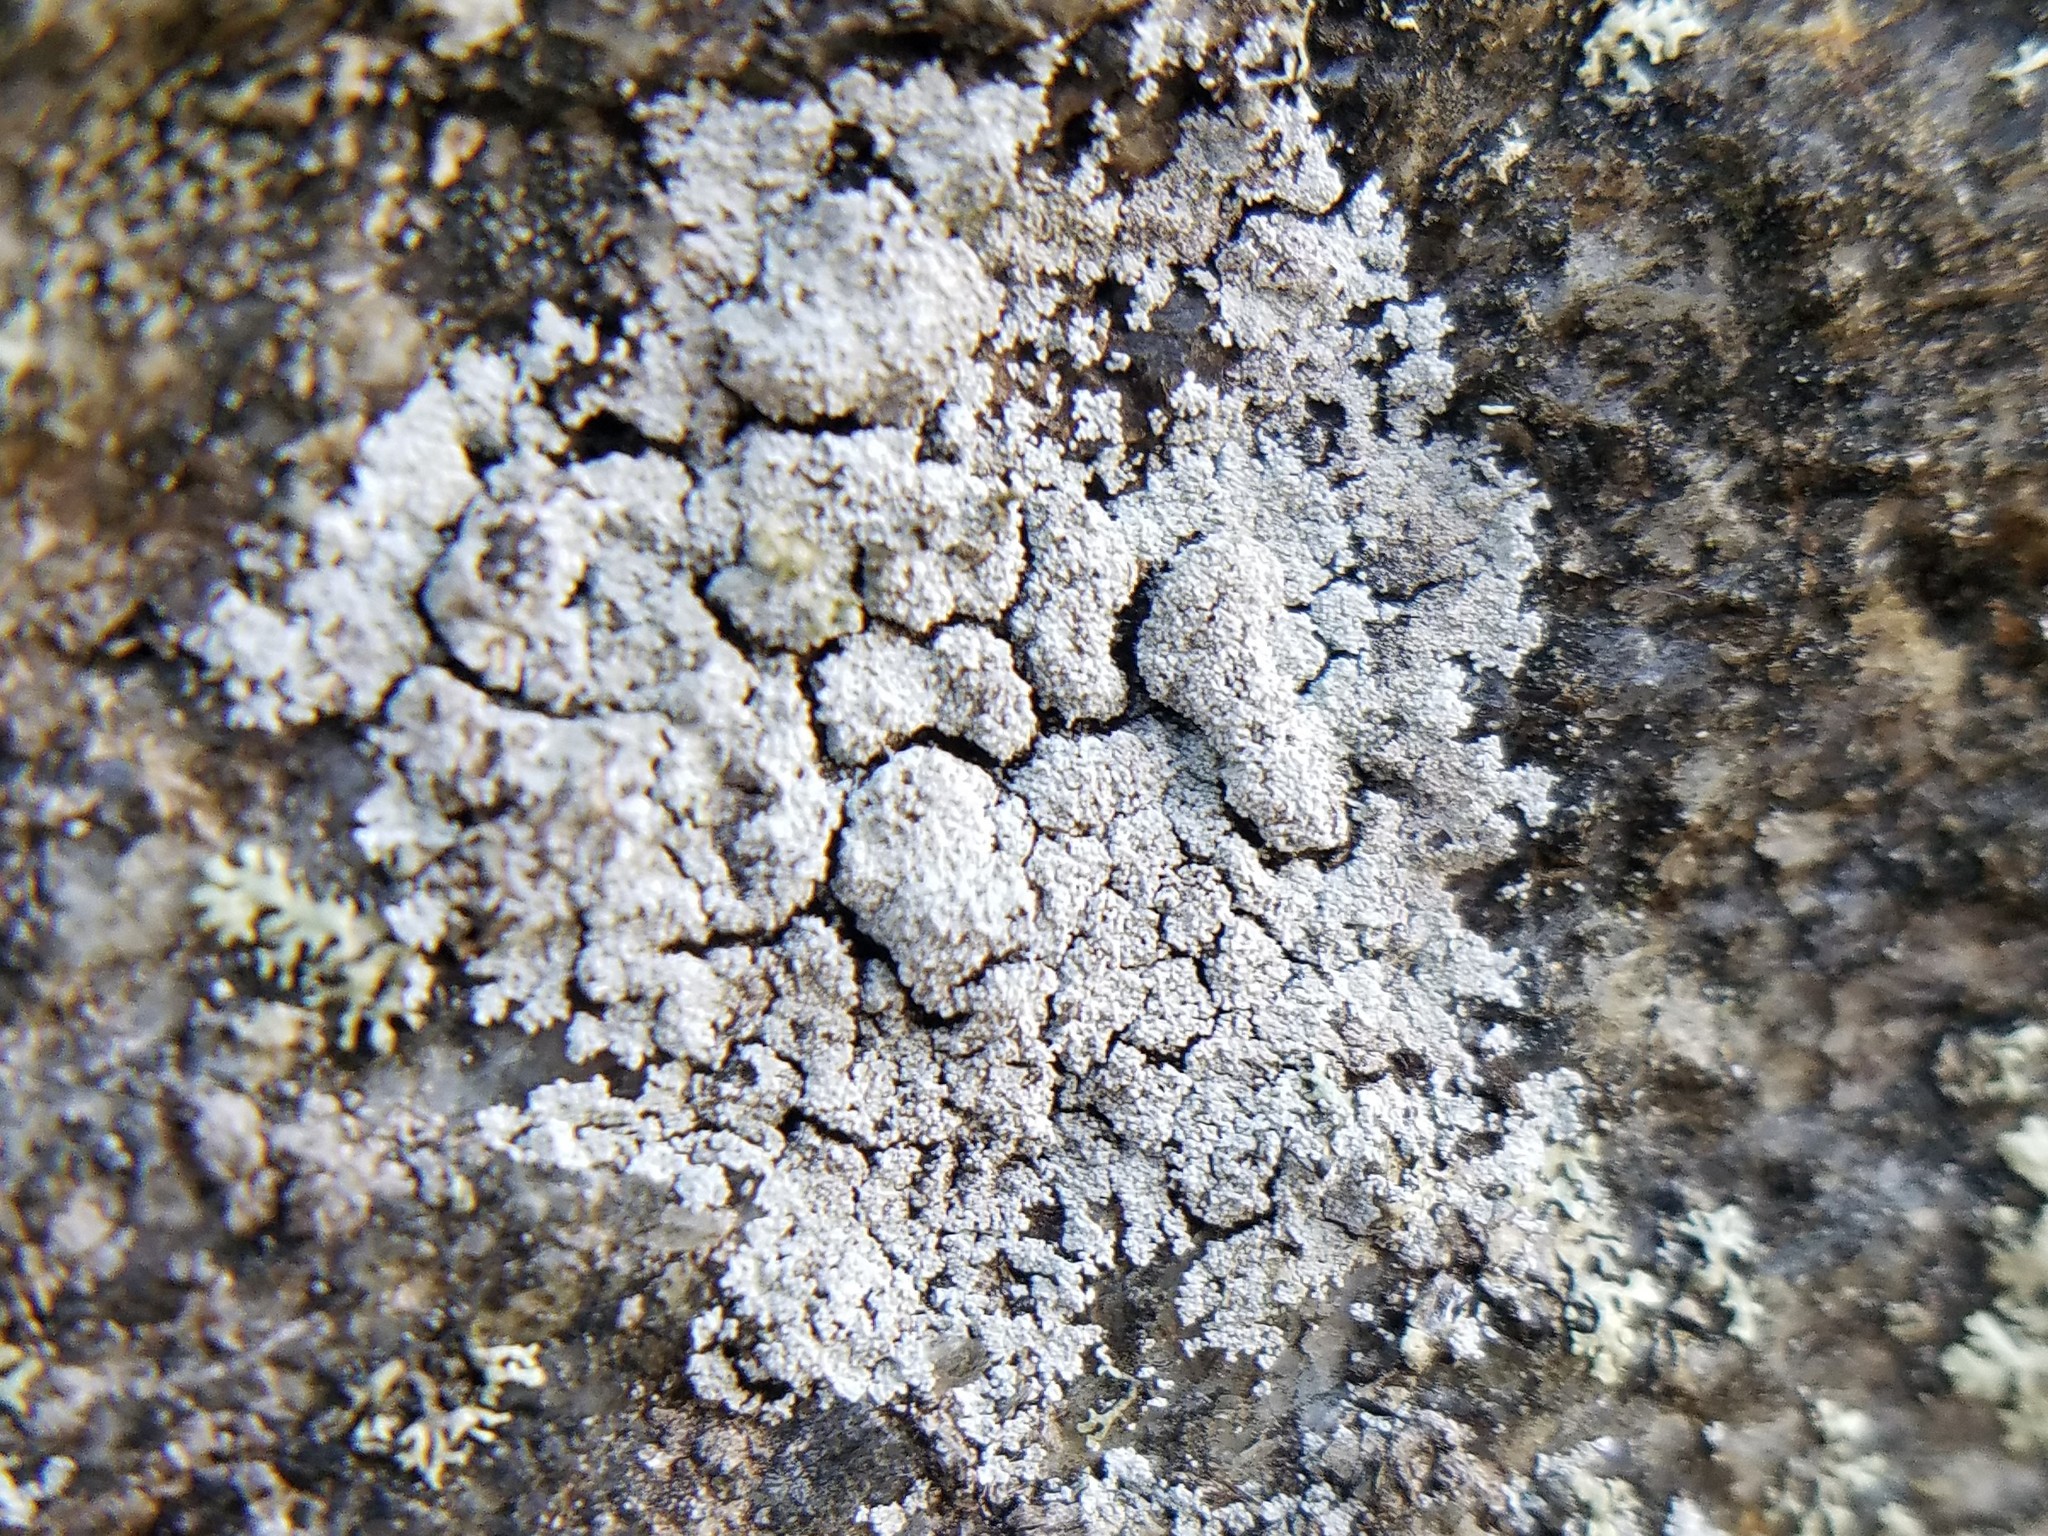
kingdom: Fungi
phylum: Ascomycota
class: Lecanoromycetes
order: Lecanorales
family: Stereocaulaceae
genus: Lepraria
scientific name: Lepraria neglecta
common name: Zoned dust lichen
